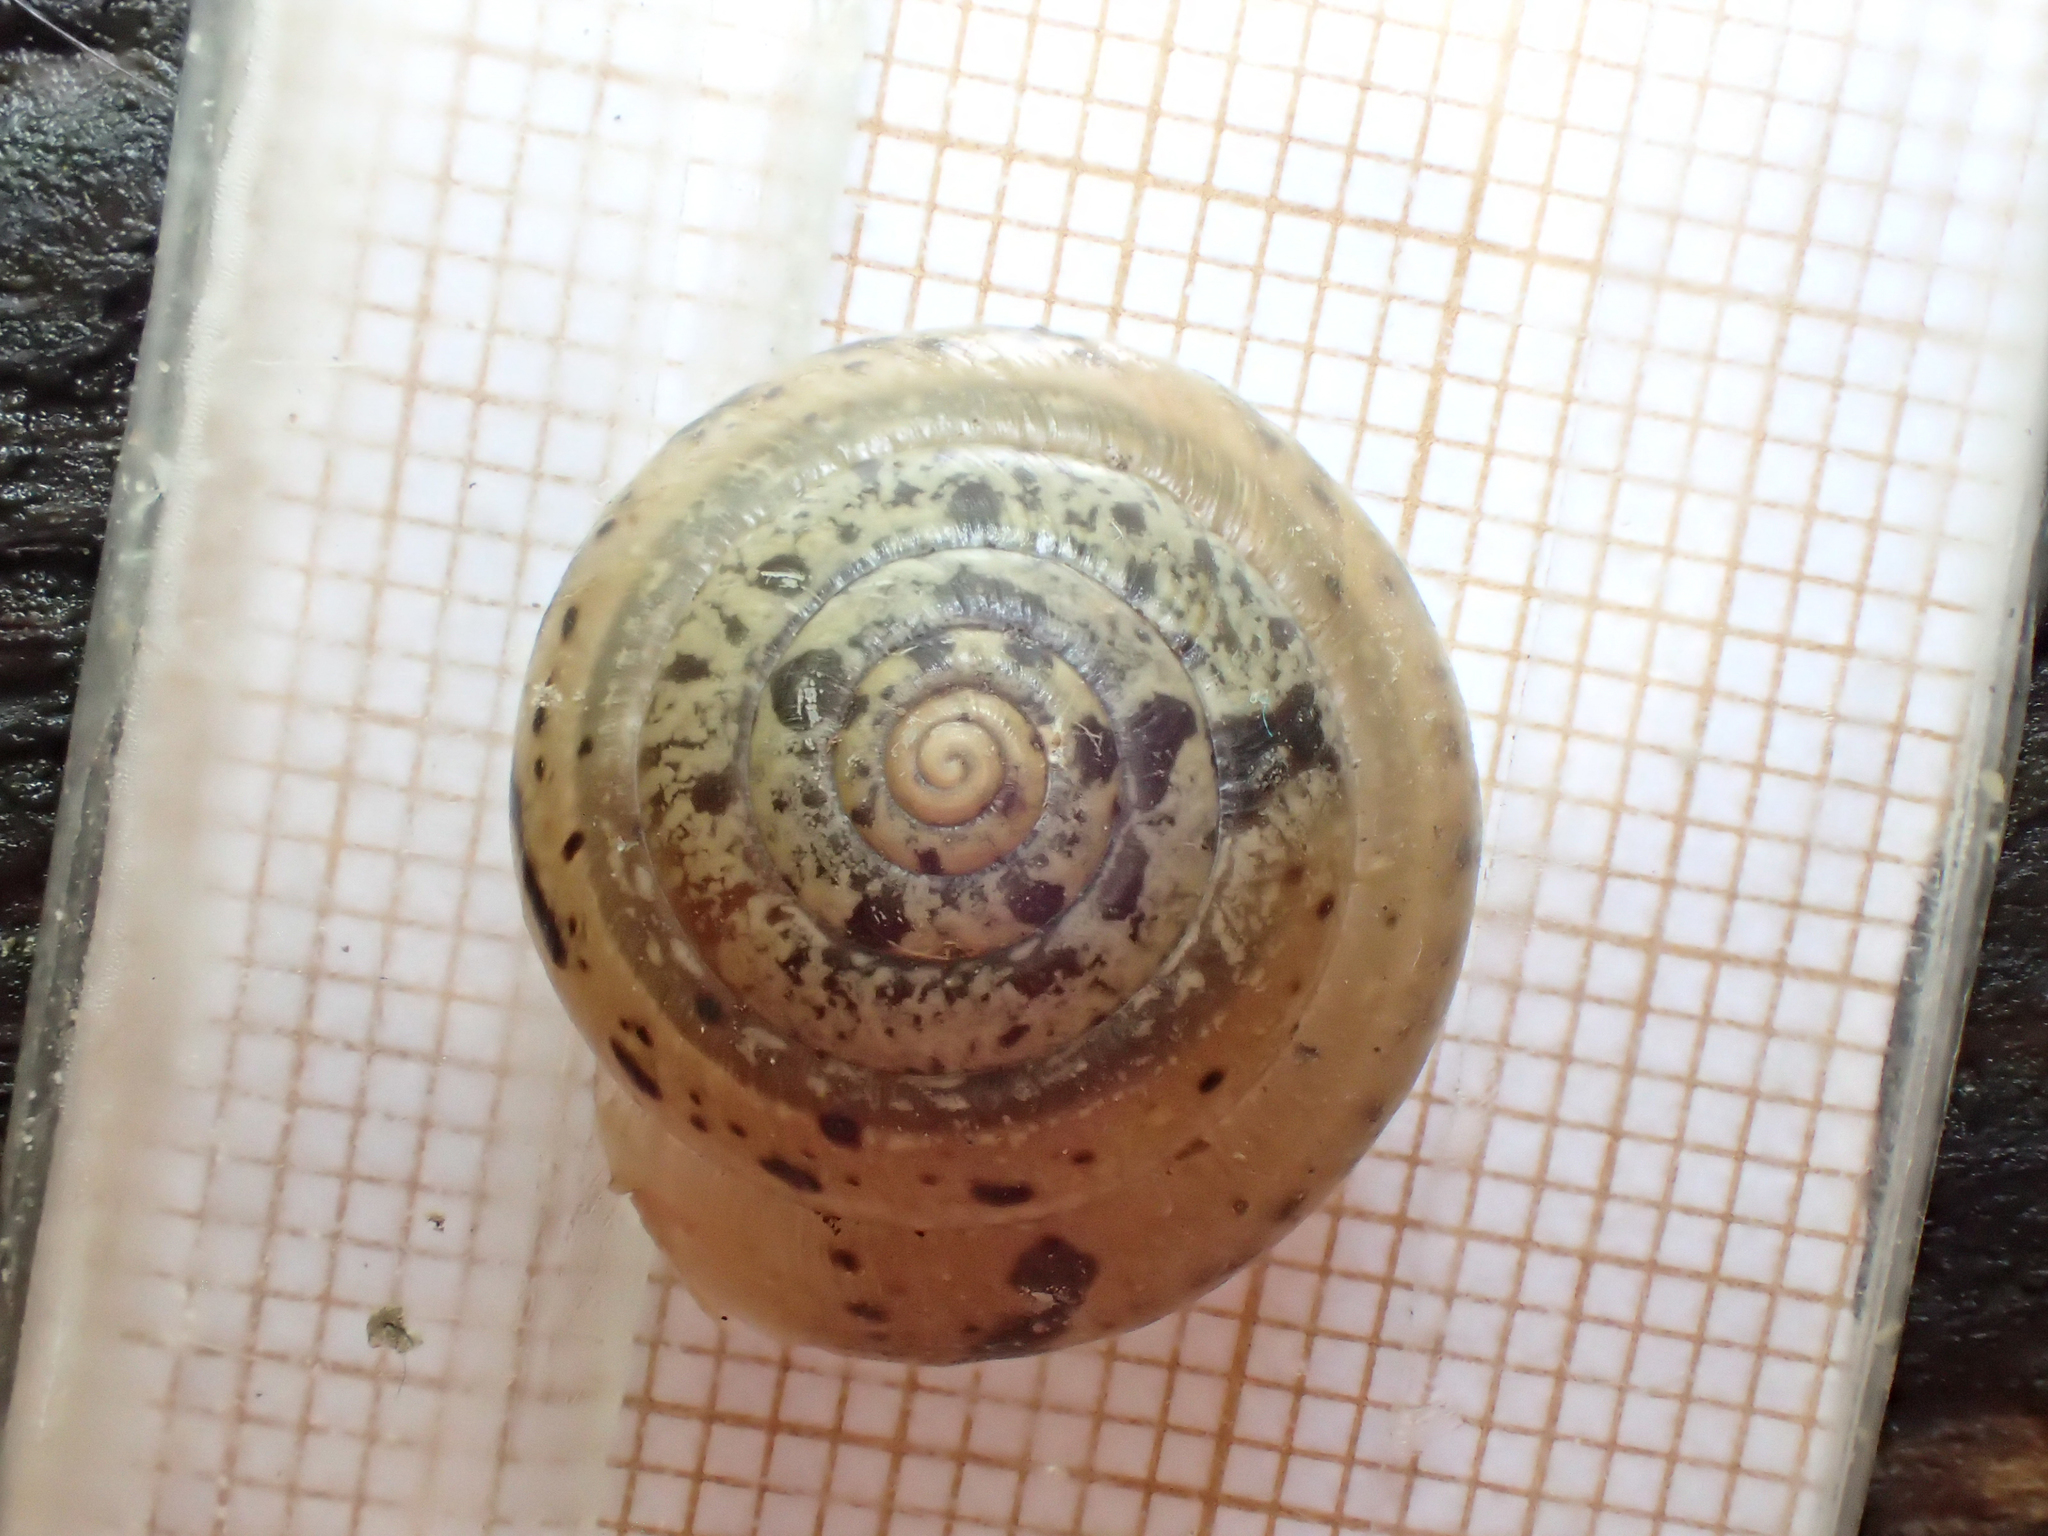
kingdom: Animalia
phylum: Mollusca
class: Gastropoda
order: Stylommatophora
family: Hygromiidae
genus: Monachoides
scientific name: Monachoides incarnatus
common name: Incarnate snail
